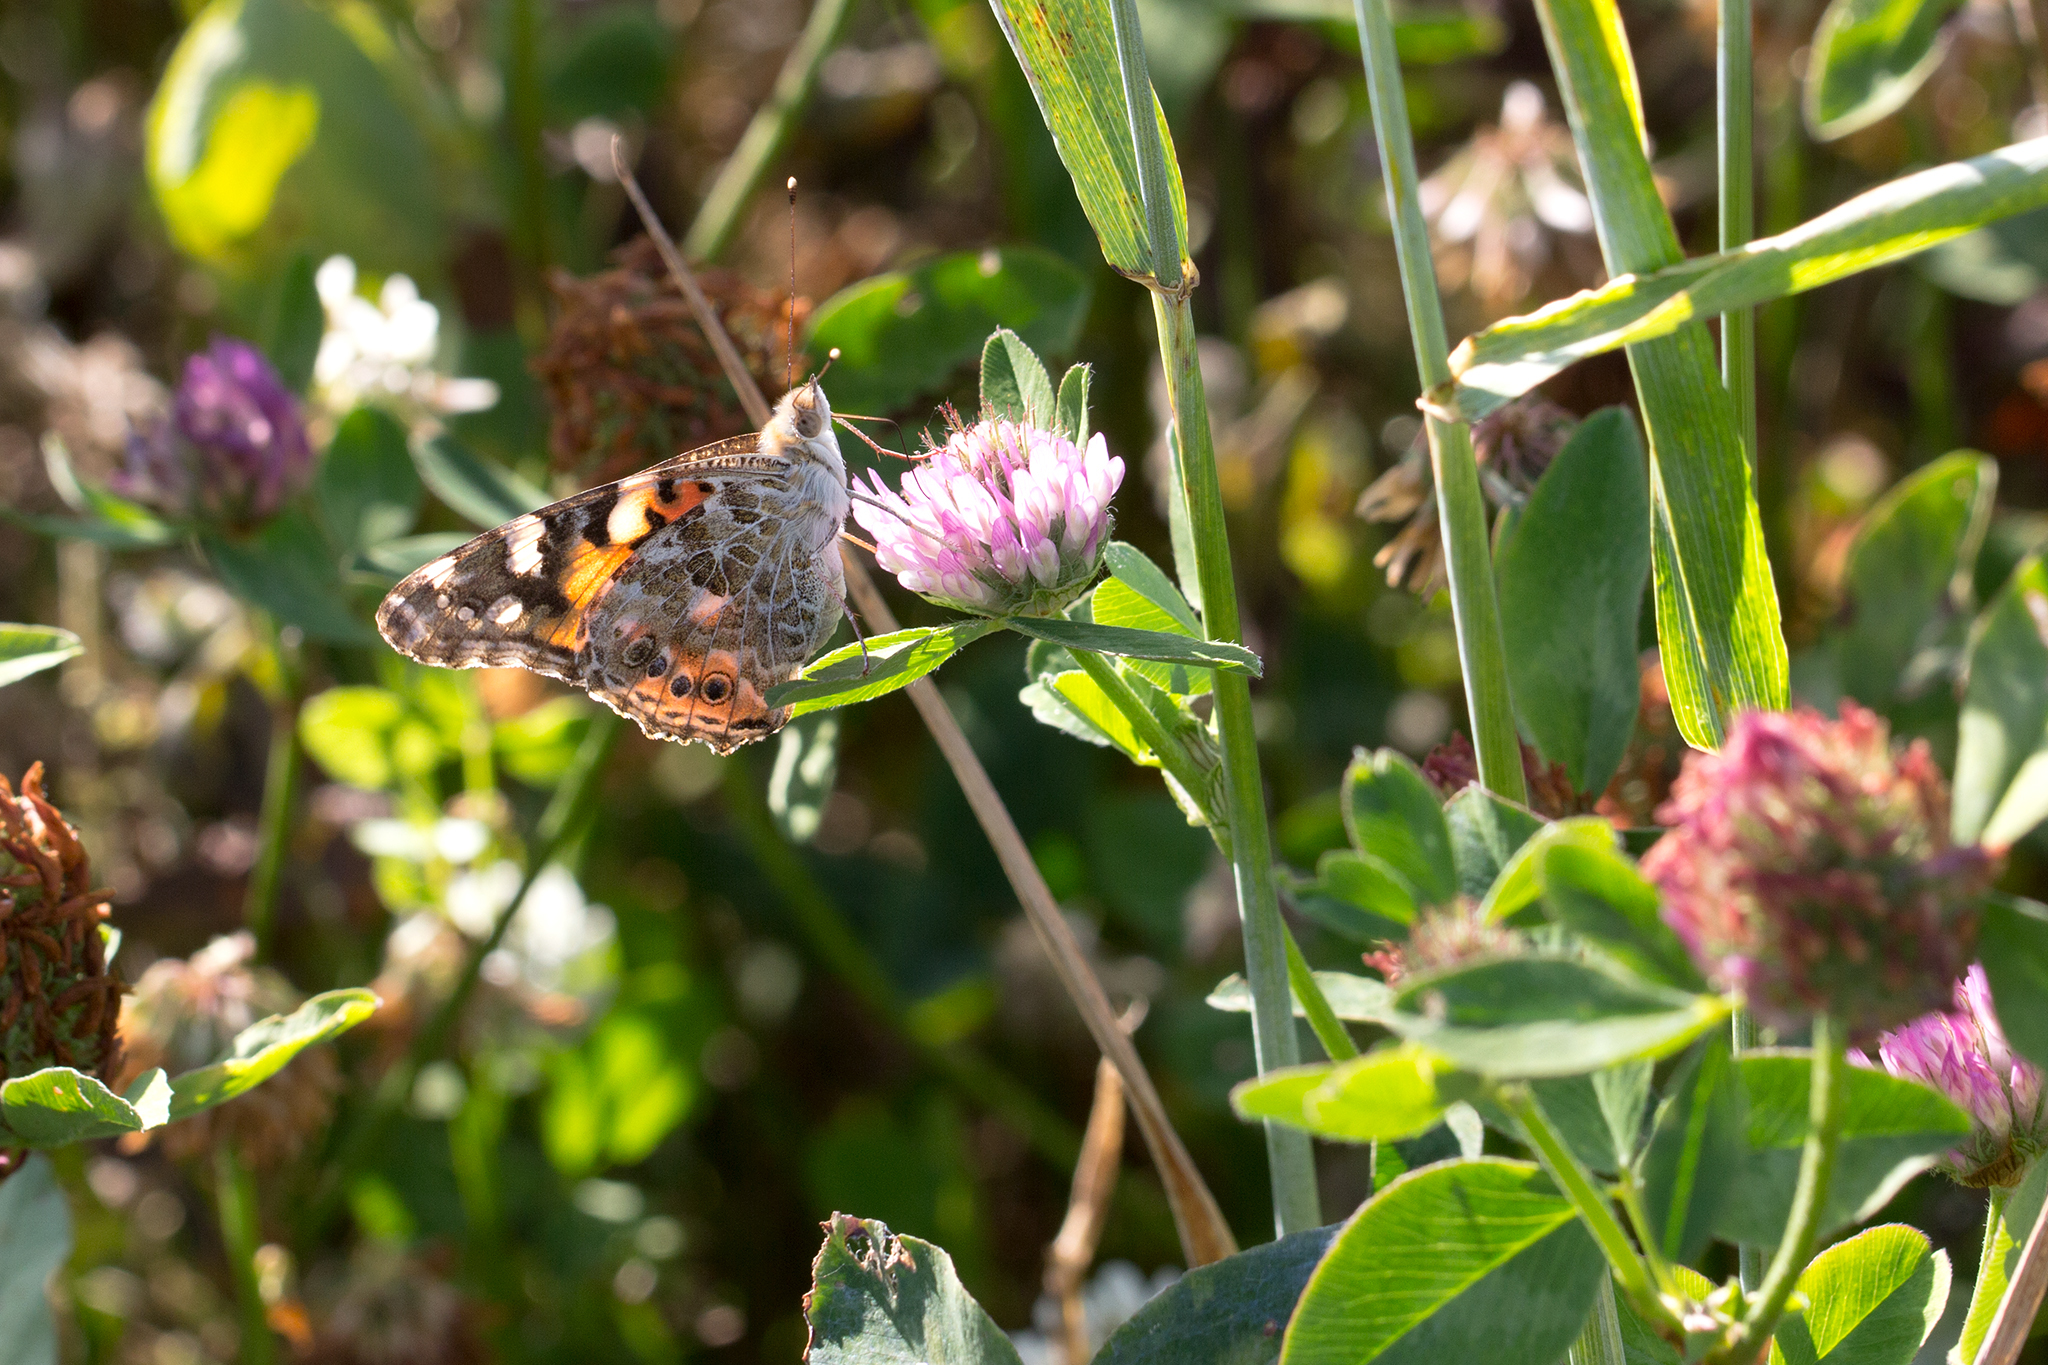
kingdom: Animalia
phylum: Arthropoda
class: Insecta
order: Lepidoptera
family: Nymphalidae
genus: Vanessa
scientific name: Vanessa cardui
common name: Painted lady
